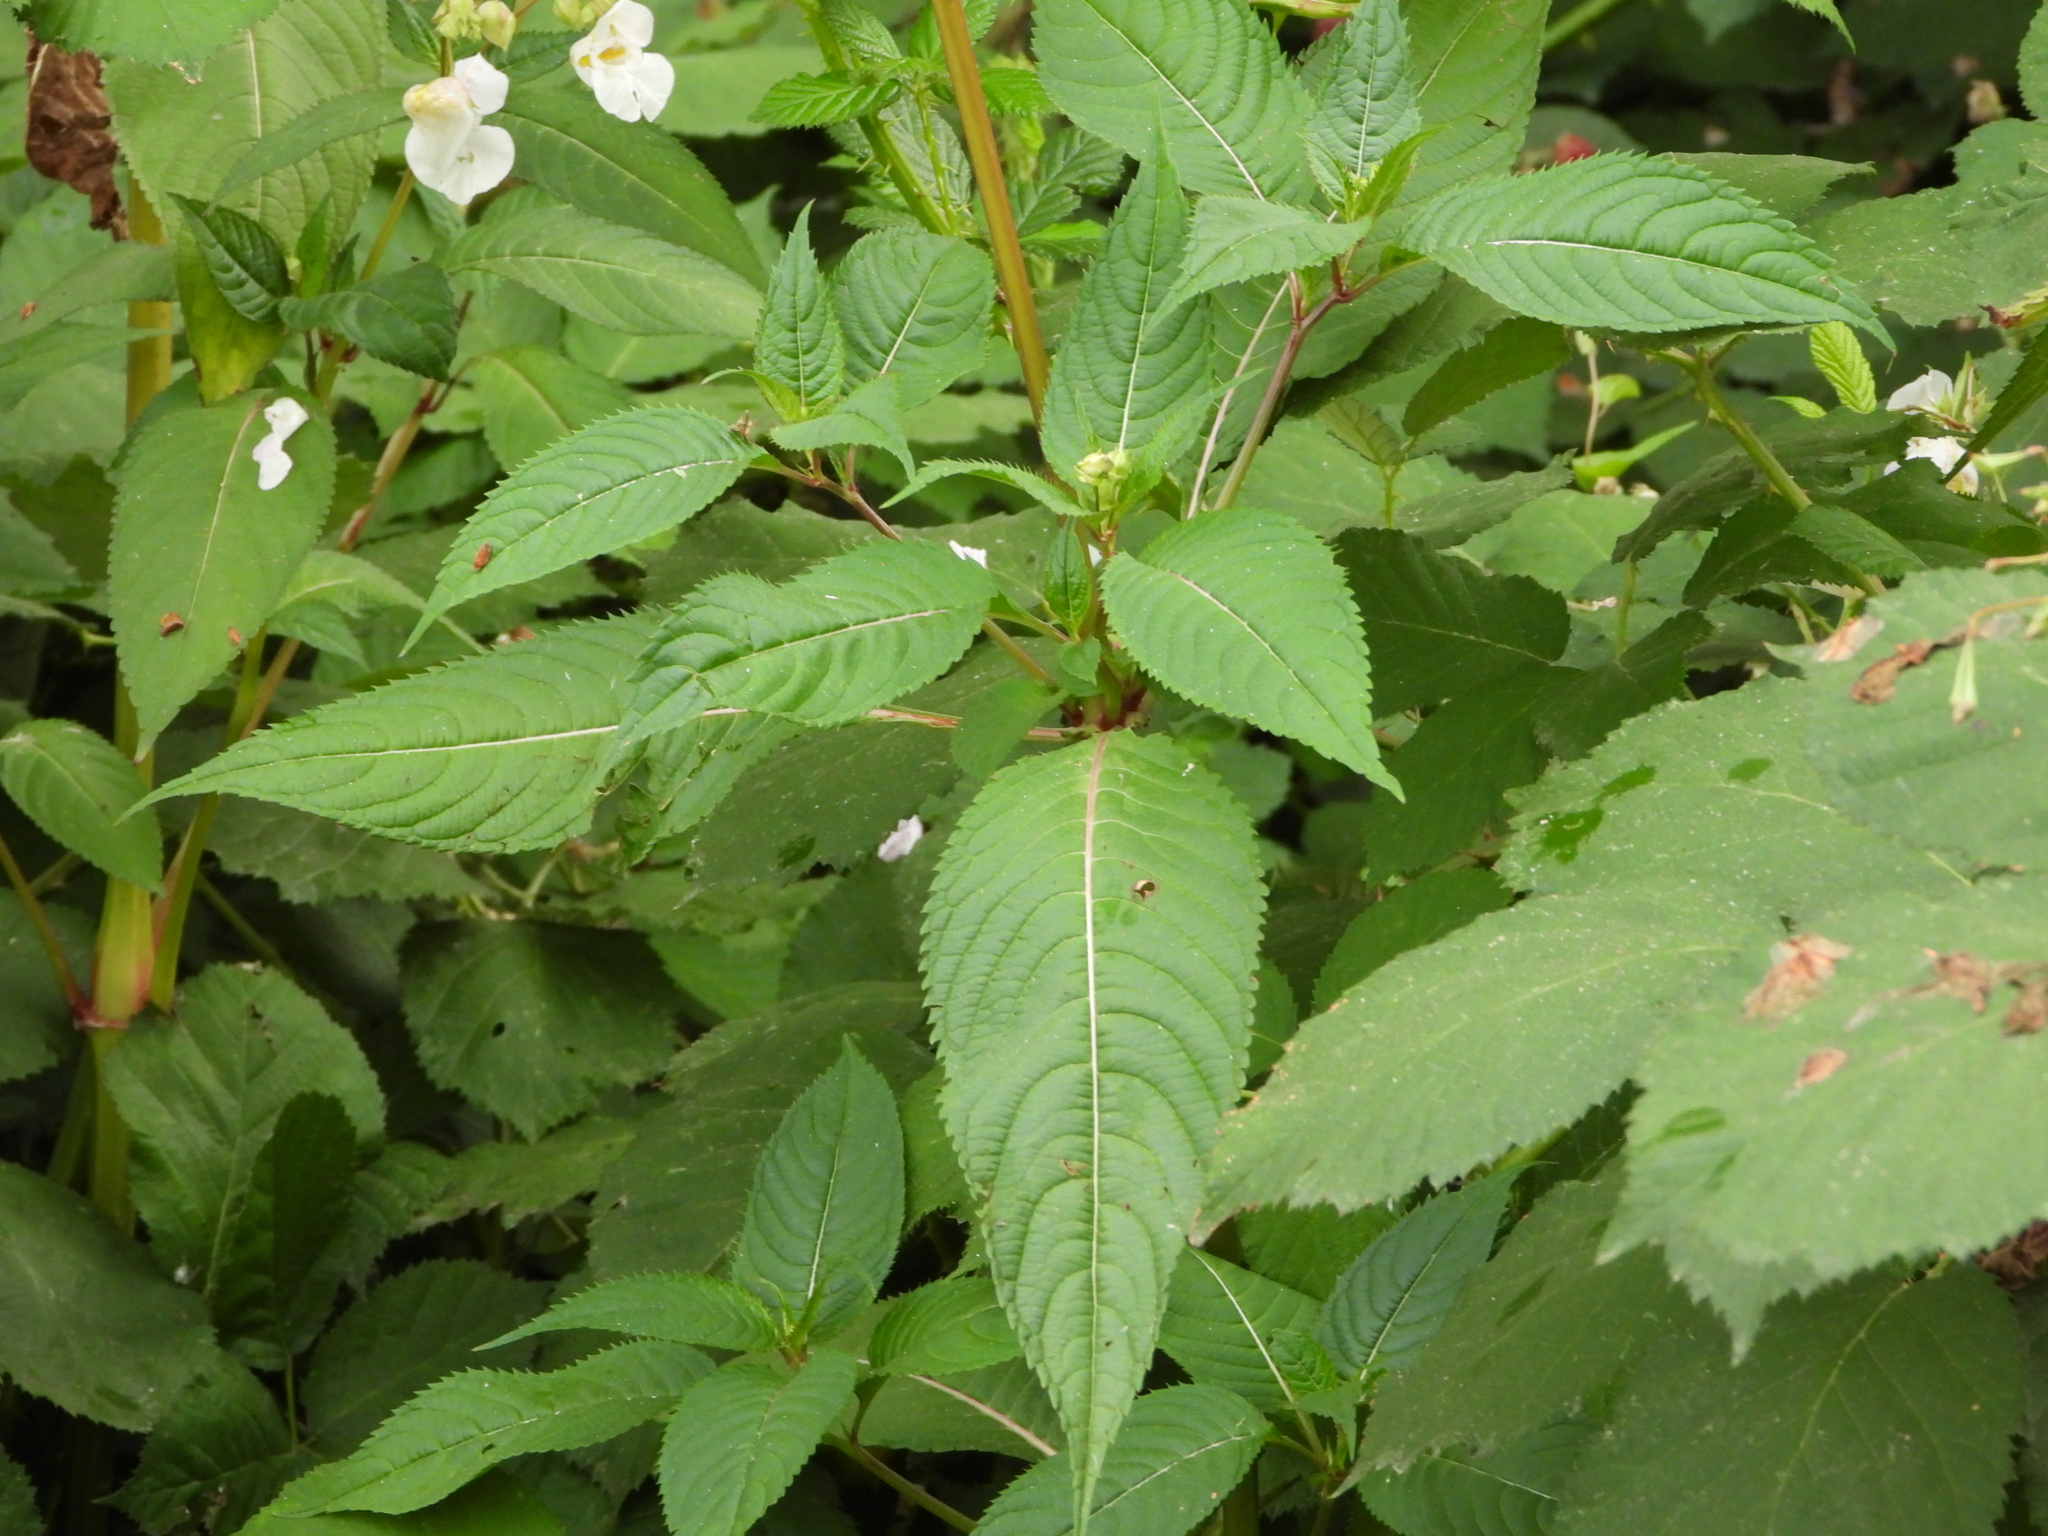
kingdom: Plantae
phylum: Tracheophyta
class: Magnoliopsida
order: Ericales
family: Balsaminaceae
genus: Impatiens
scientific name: Impatiens glandulifera
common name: Himalayan balsam
